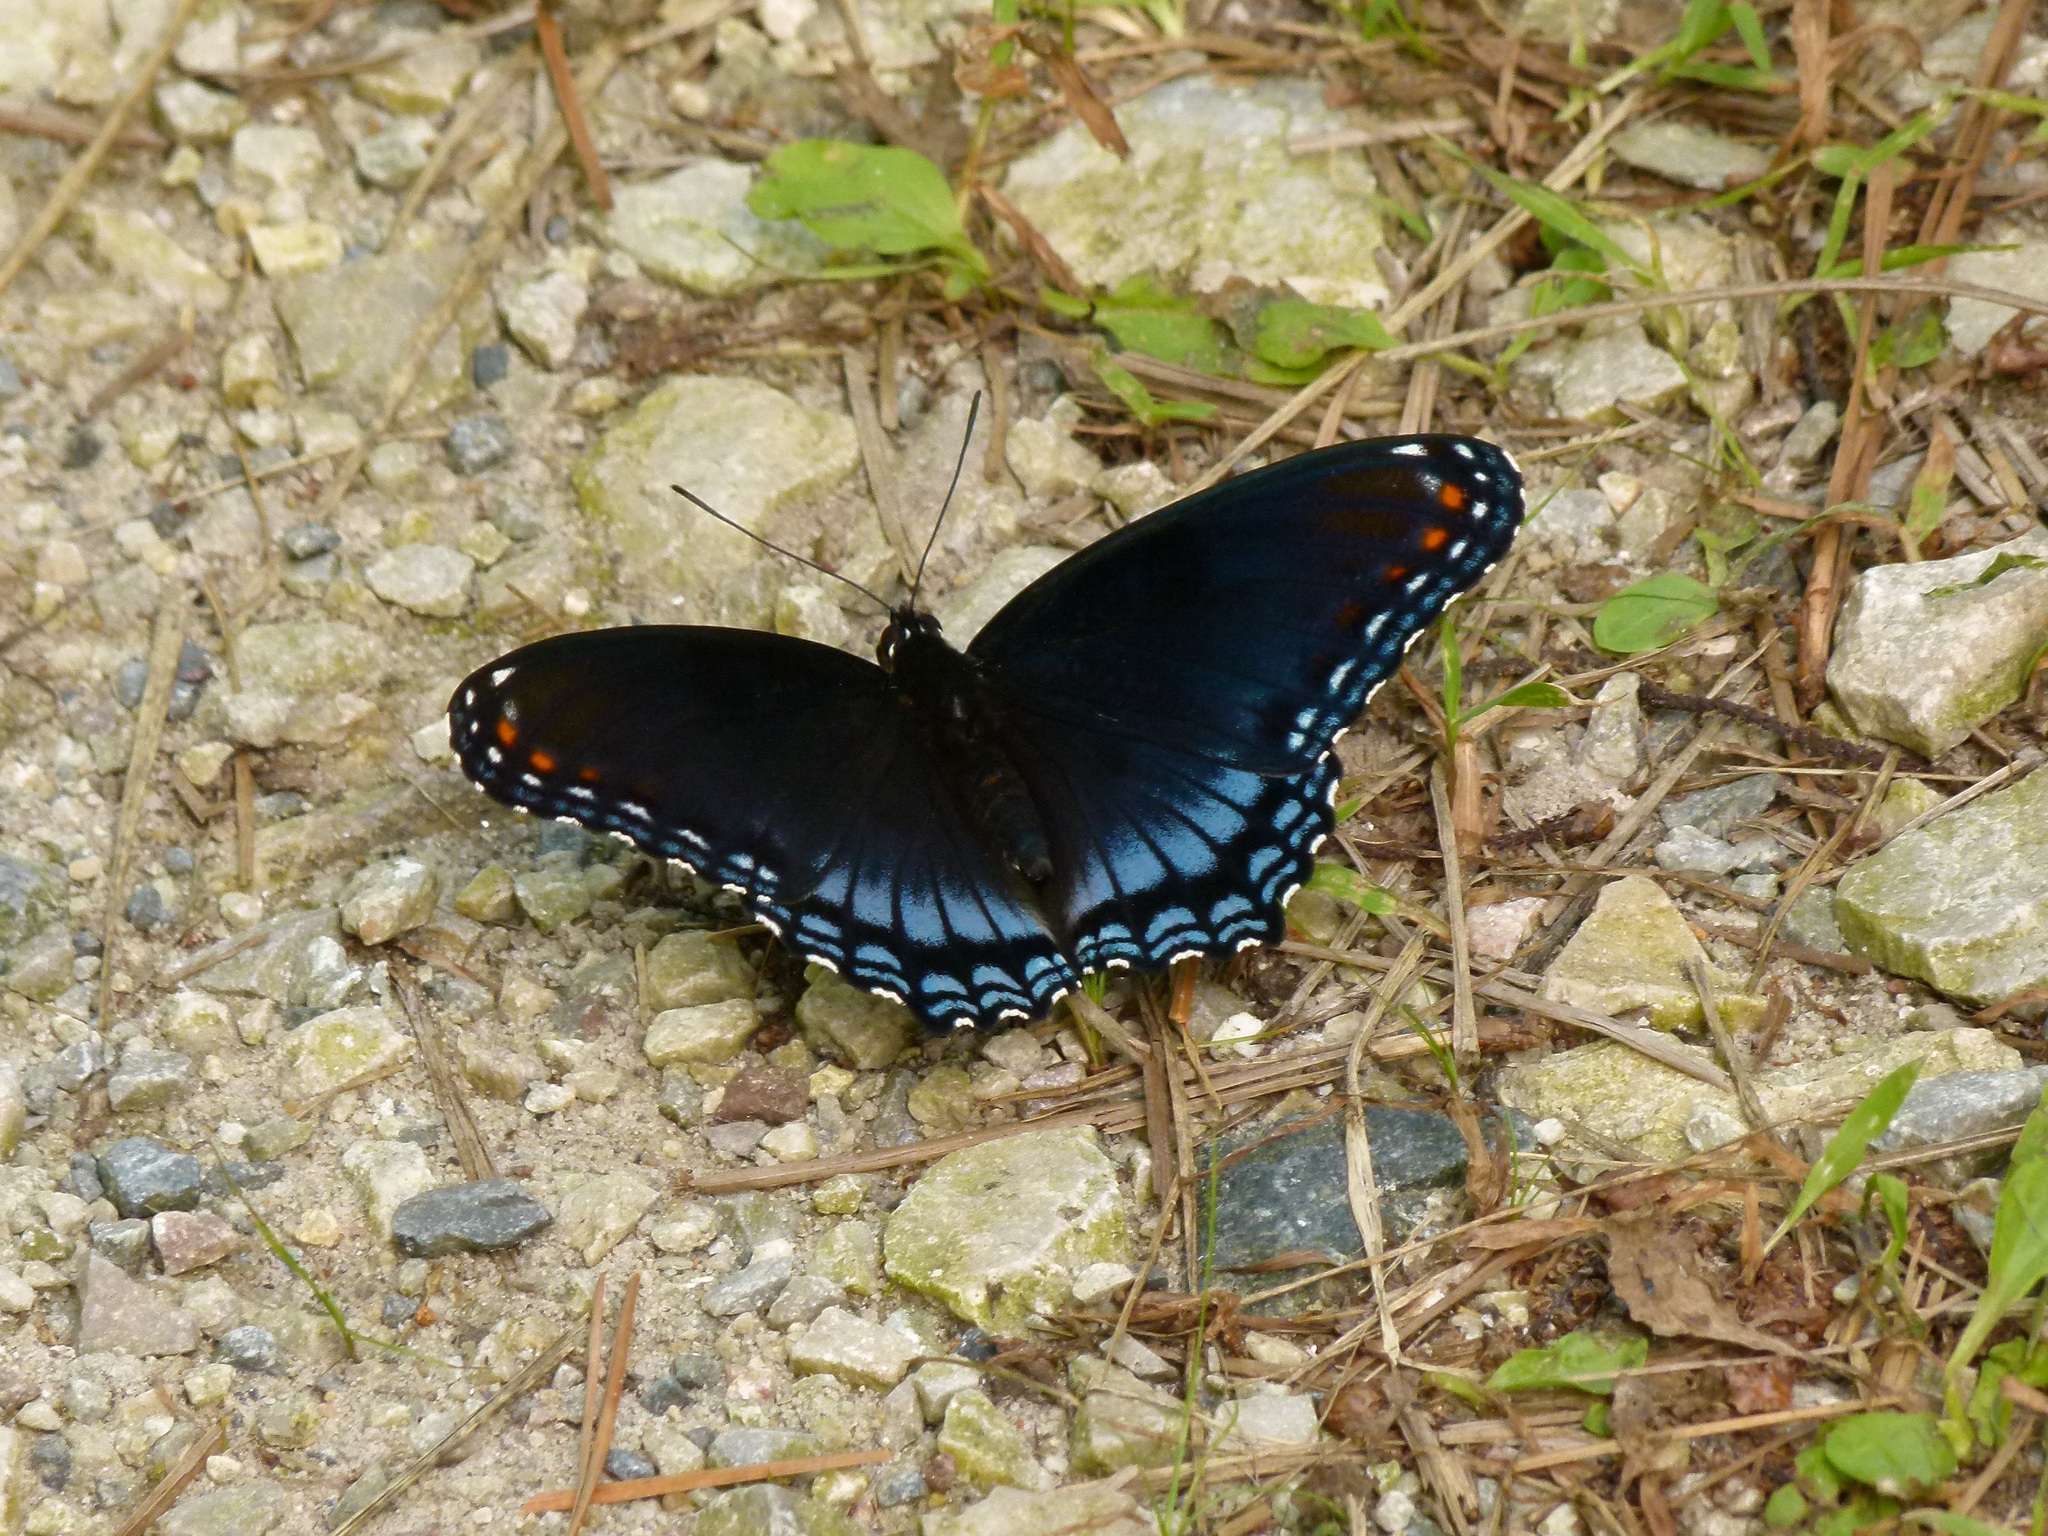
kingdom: Animalia
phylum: Arthropoda
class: Insecta
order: Lepidoptera
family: Nymphalidae
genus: Limenitis
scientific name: Limenitis astyanax
